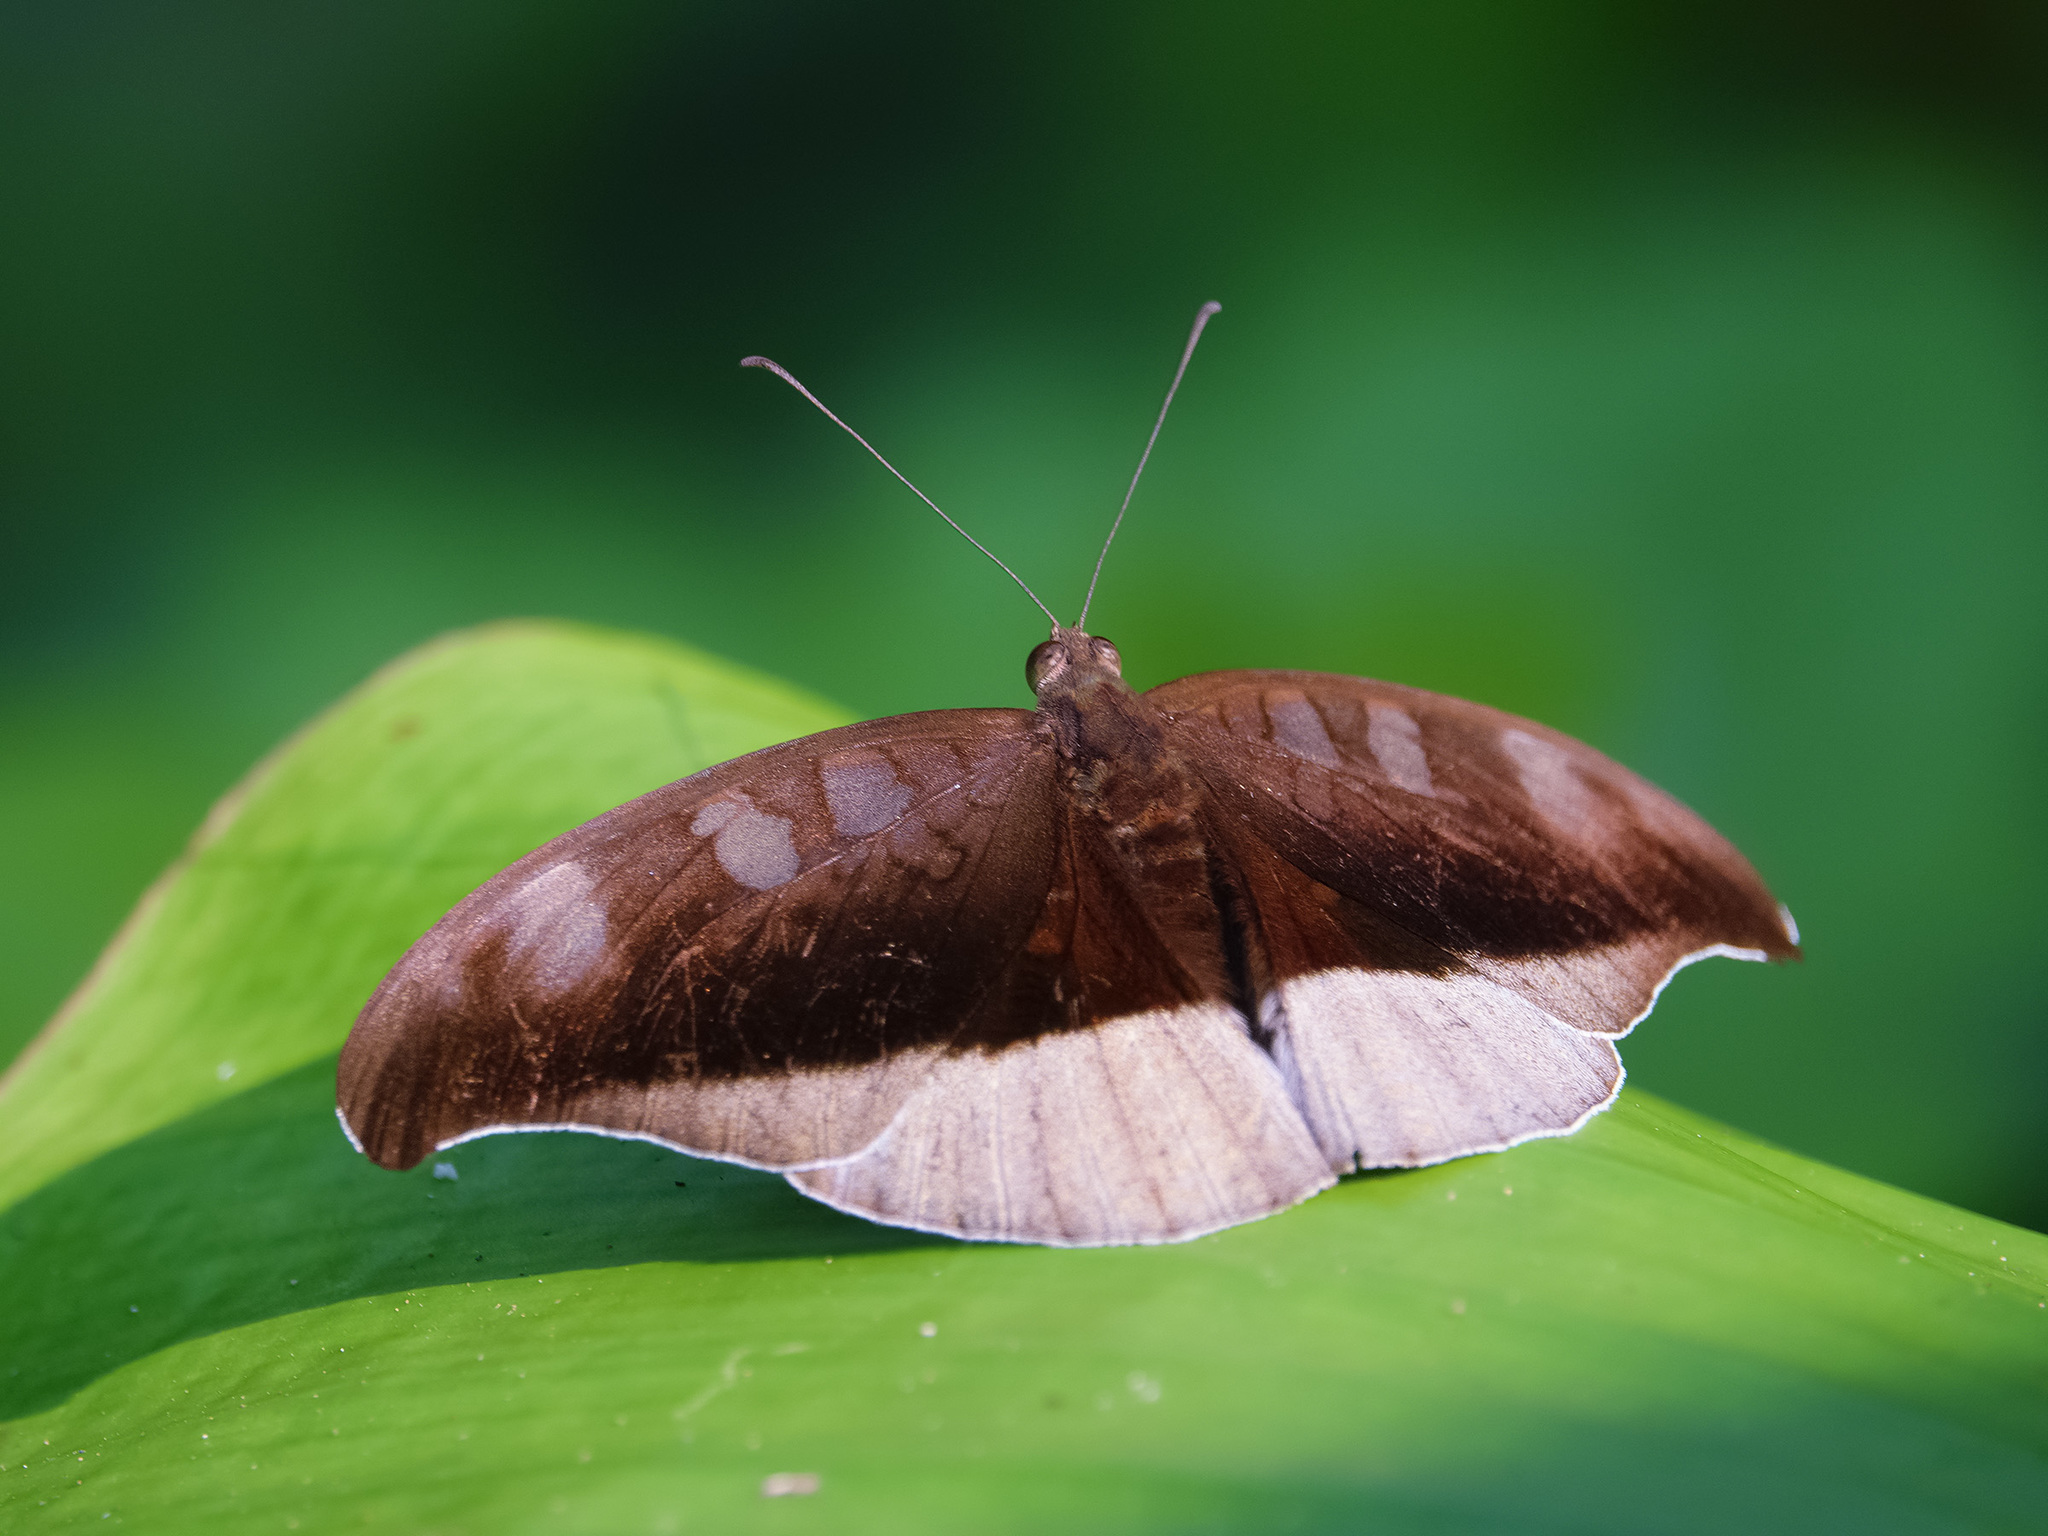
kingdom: Animalia
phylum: Arthropoda
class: Insecta
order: Lepidoptera
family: Nymphalidae
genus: Tanaecia
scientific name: Tanaecia cocytus
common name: Lavender count
